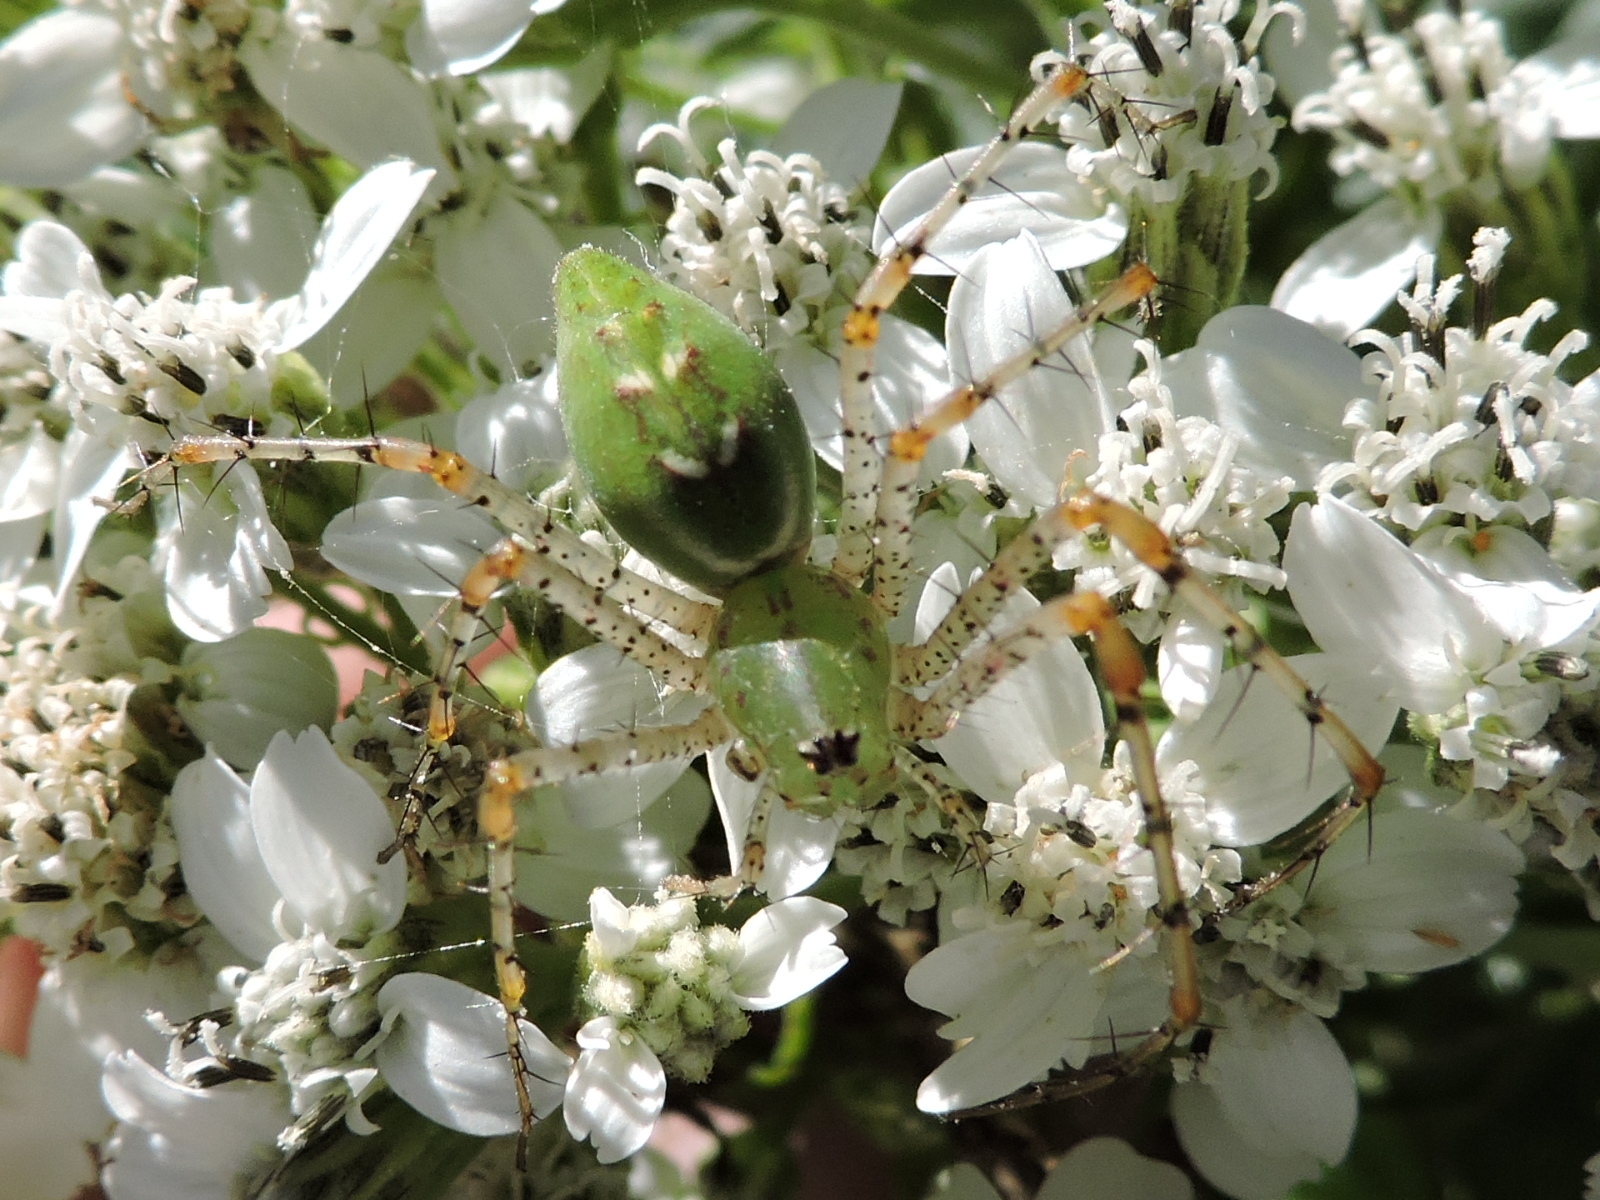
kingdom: Animalia
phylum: Arthropoda
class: Arachnida
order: Araneae
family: Oxyopidae
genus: Peucetia
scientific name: Peucetia viridans
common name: Lynx spiders
